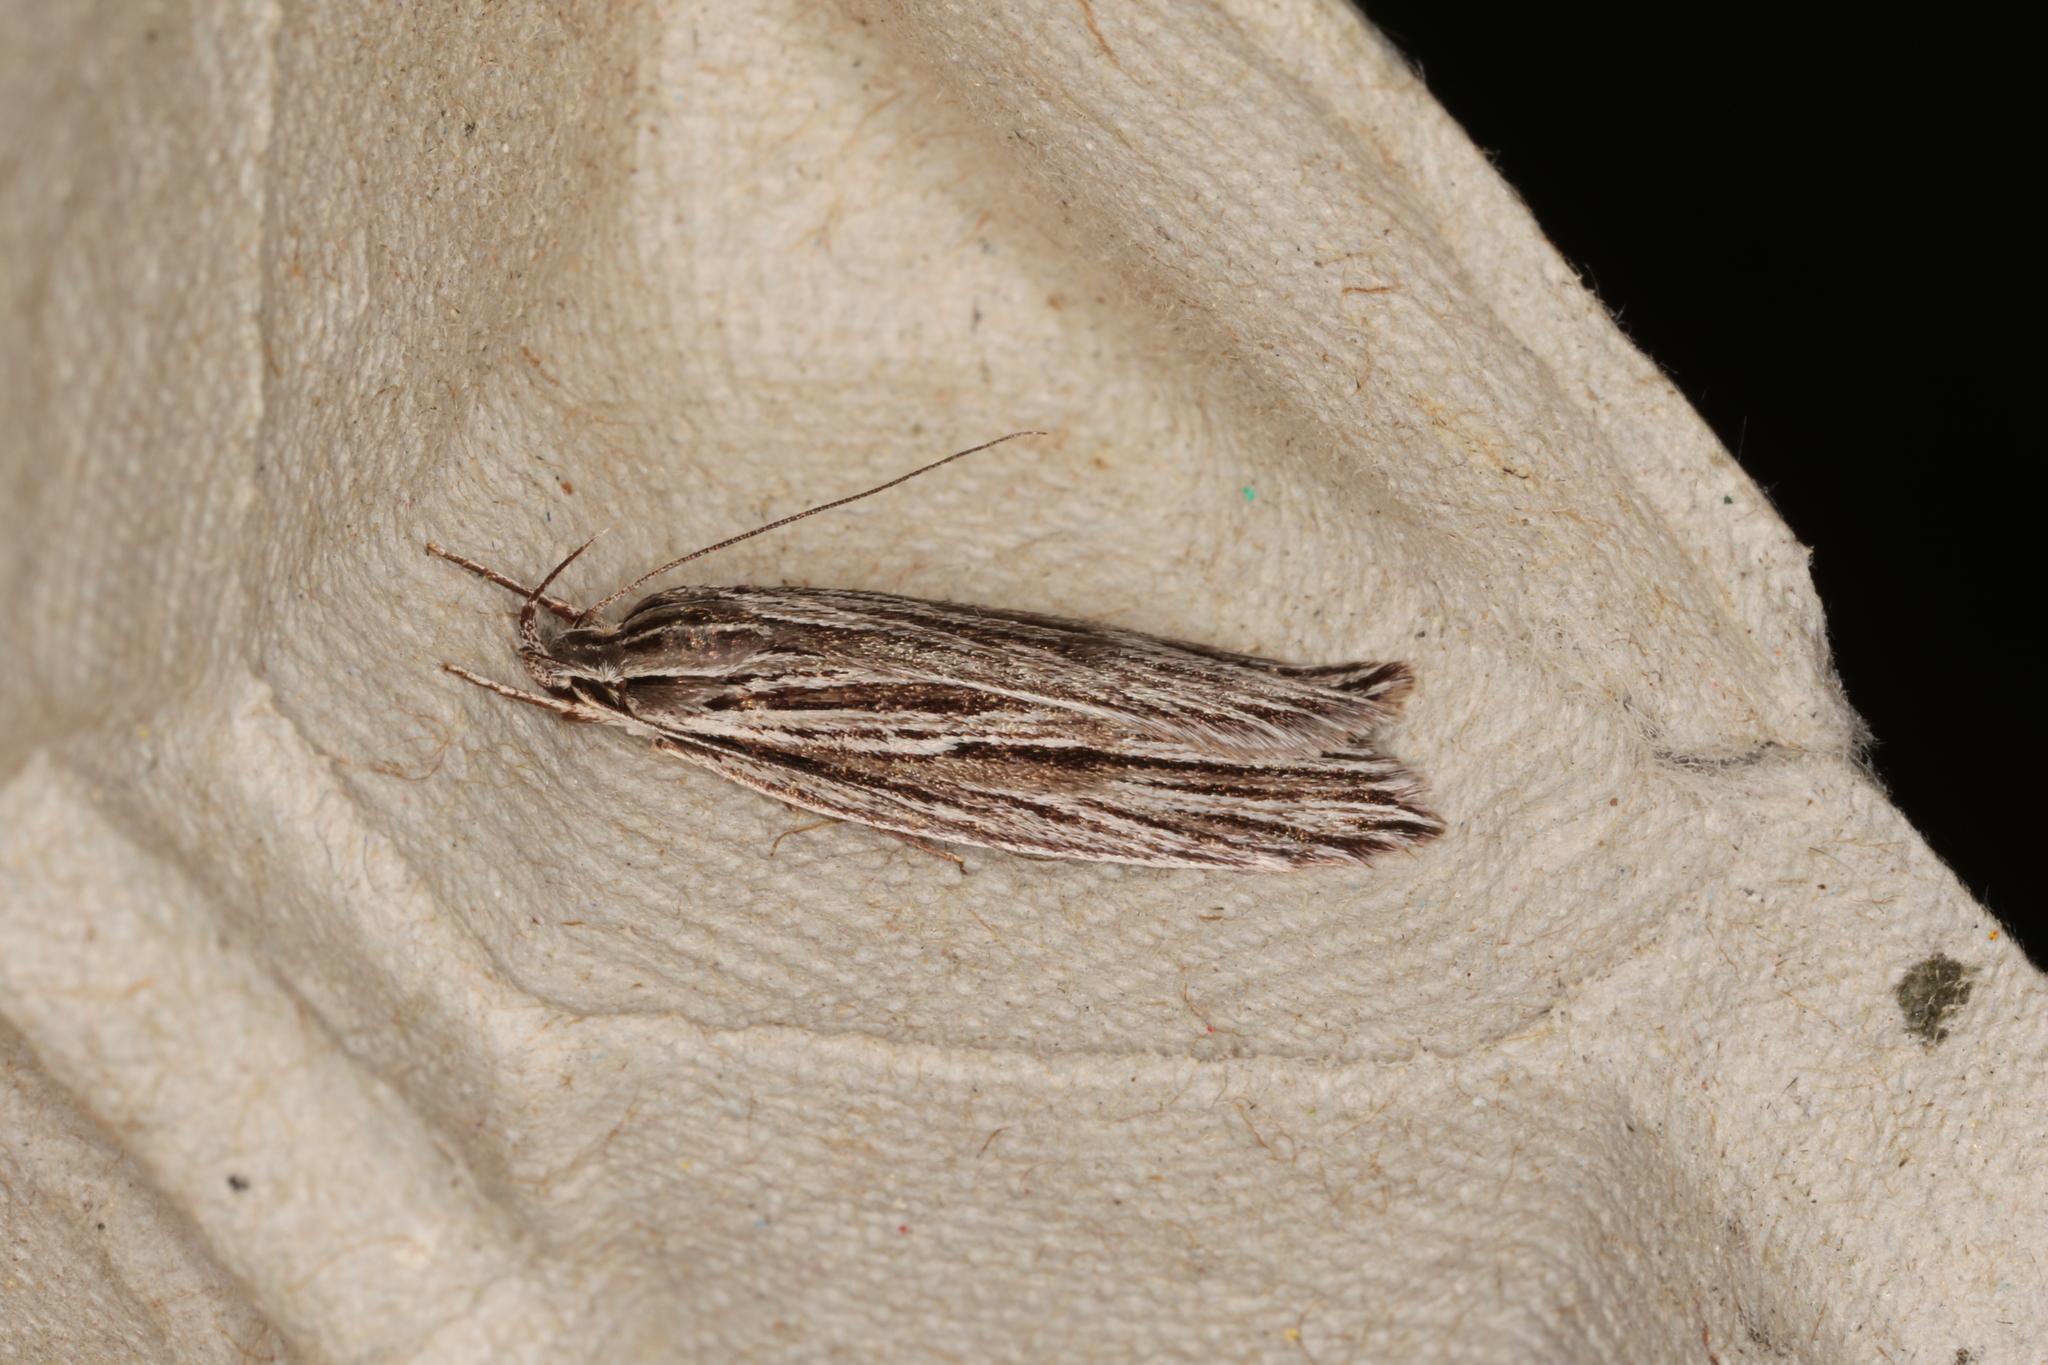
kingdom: Animalia
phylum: Arthropoda
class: Insecta
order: Lepidoptera
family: Xyloryctidae
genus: Leistarcha
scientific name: Leistarcha amphigramma
